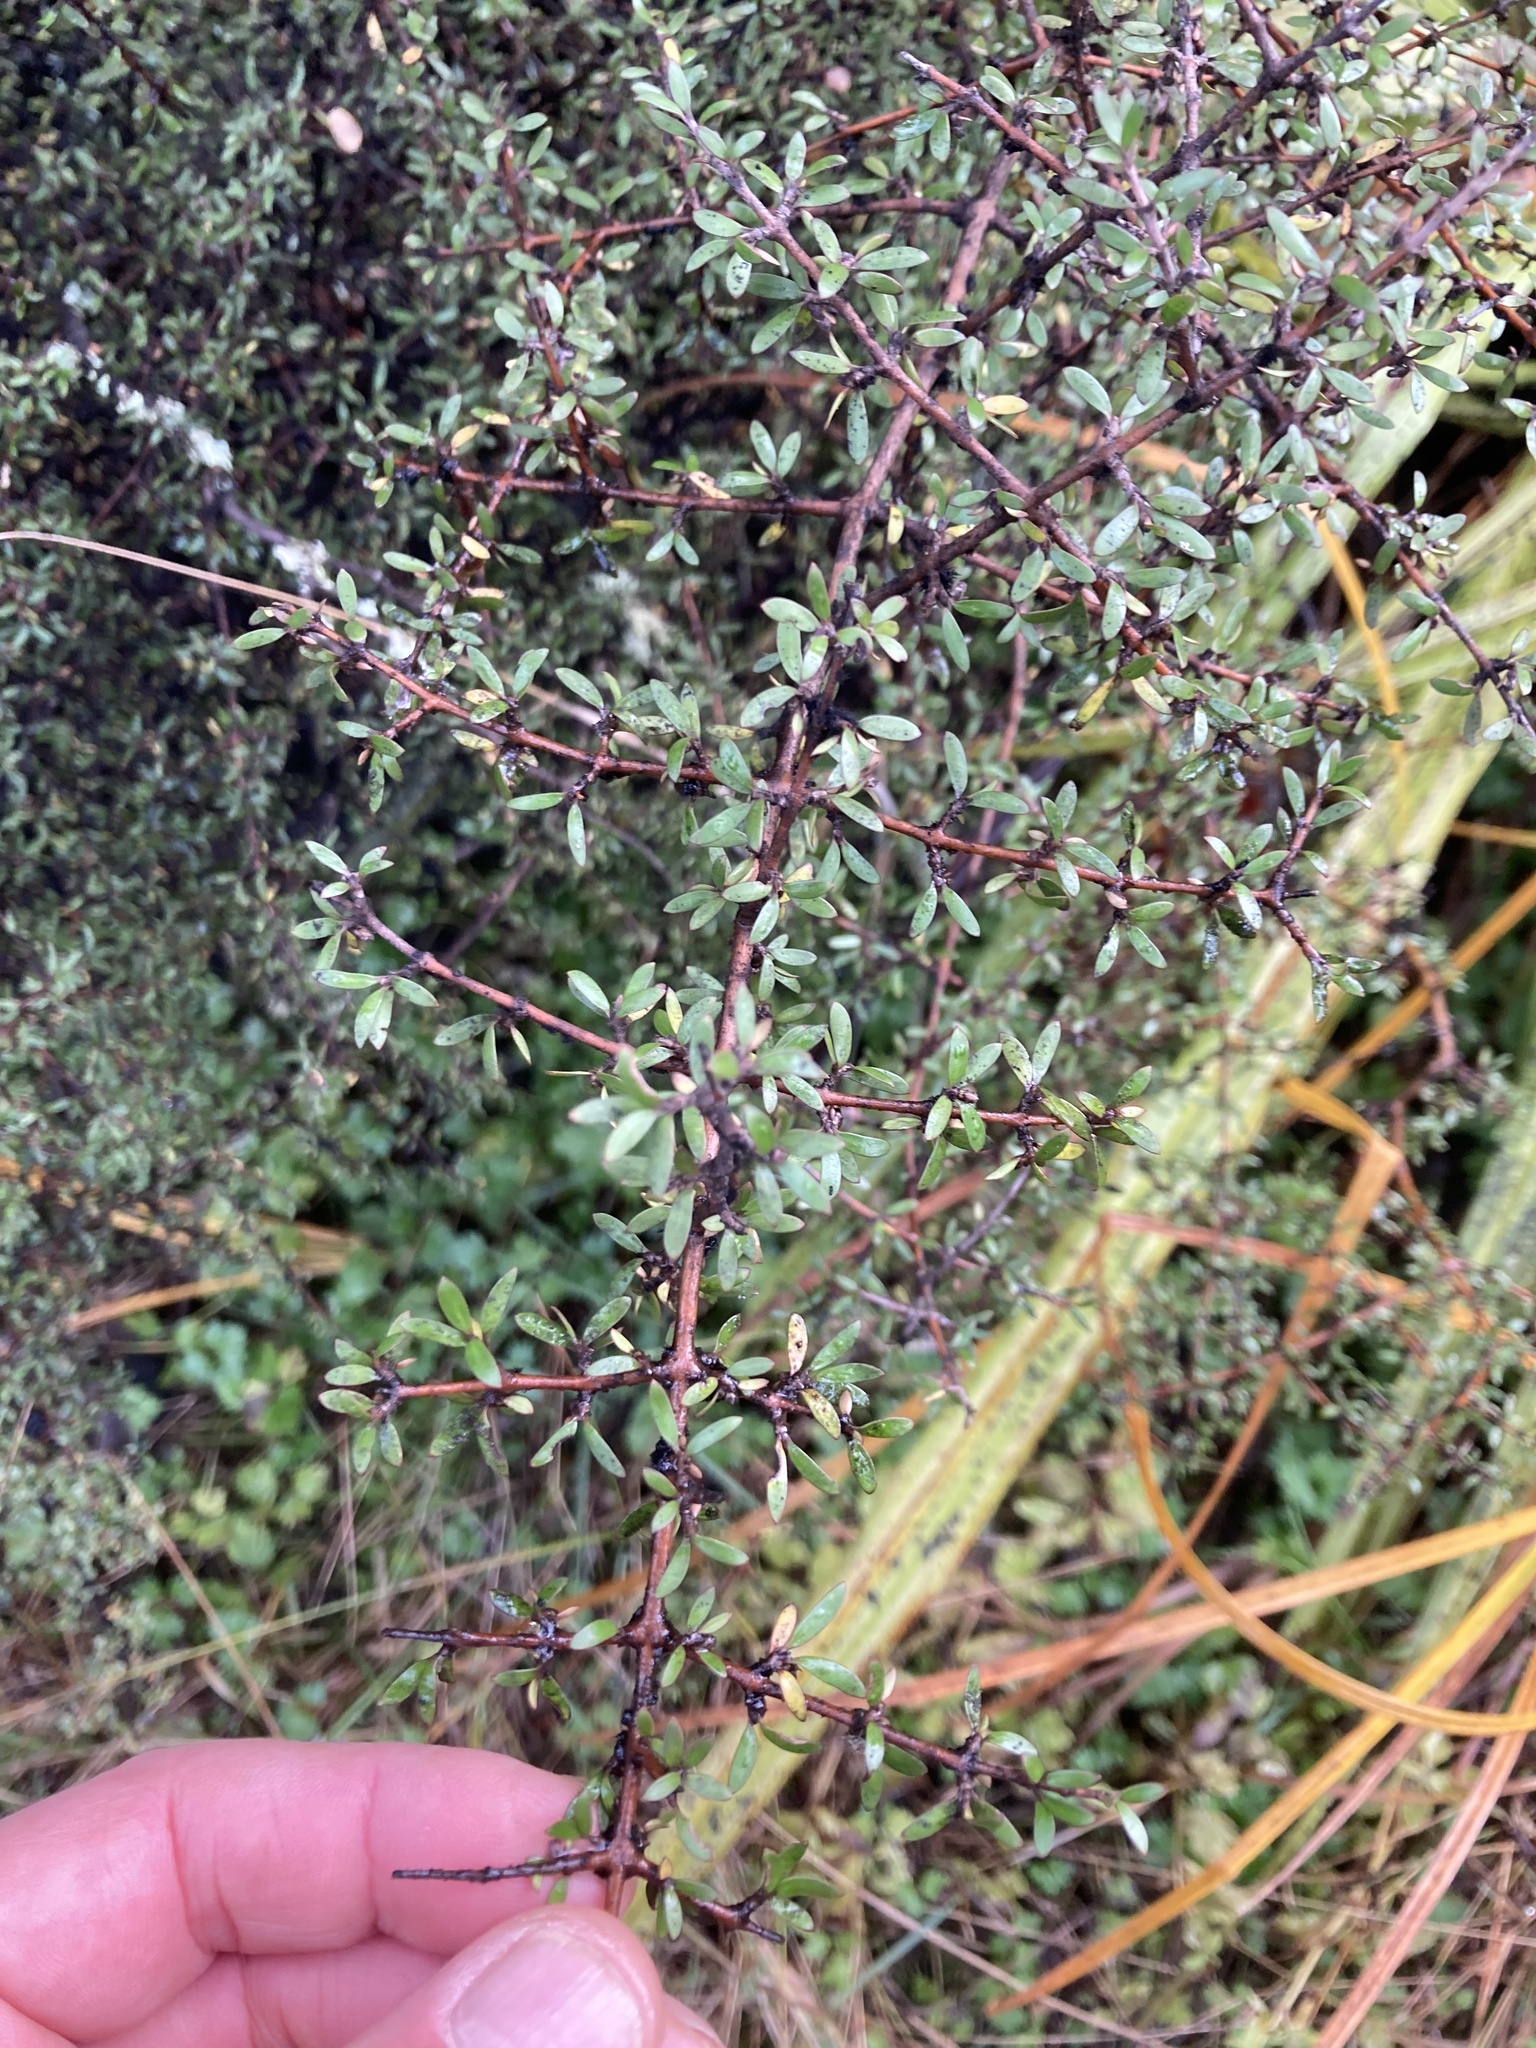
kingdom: Plantae
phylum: Tracheophyta
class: Magnoliopsida
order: Gentianales
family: Rubiaceae
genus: Coprosma
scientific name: Coprosma propinqua
